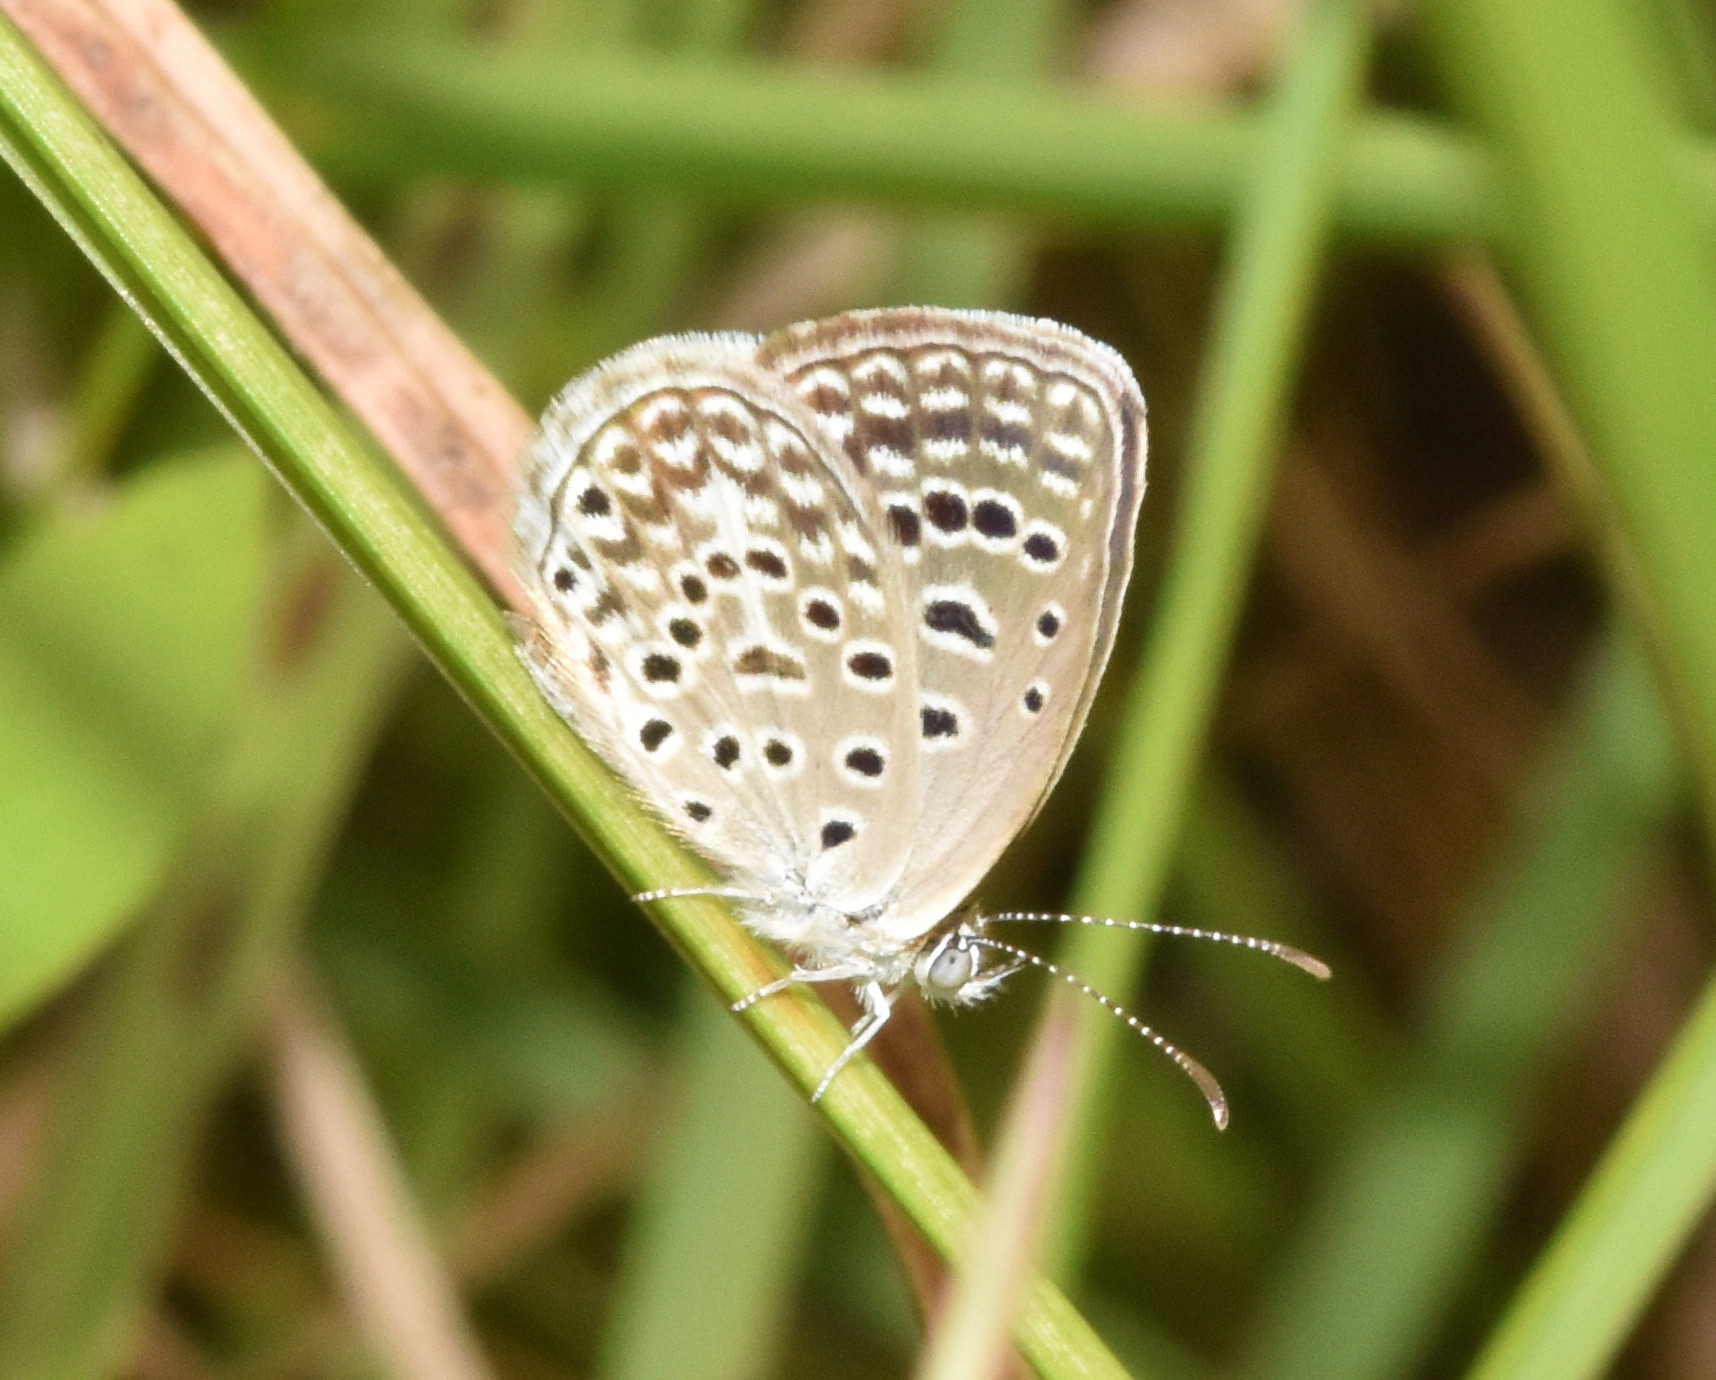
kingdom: Animalia
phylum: Arthropoda
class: Insecta
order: Lepidoptera
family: Lycaenidae
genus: Actizera
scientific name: Actizera lucida
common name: Rayed blue
